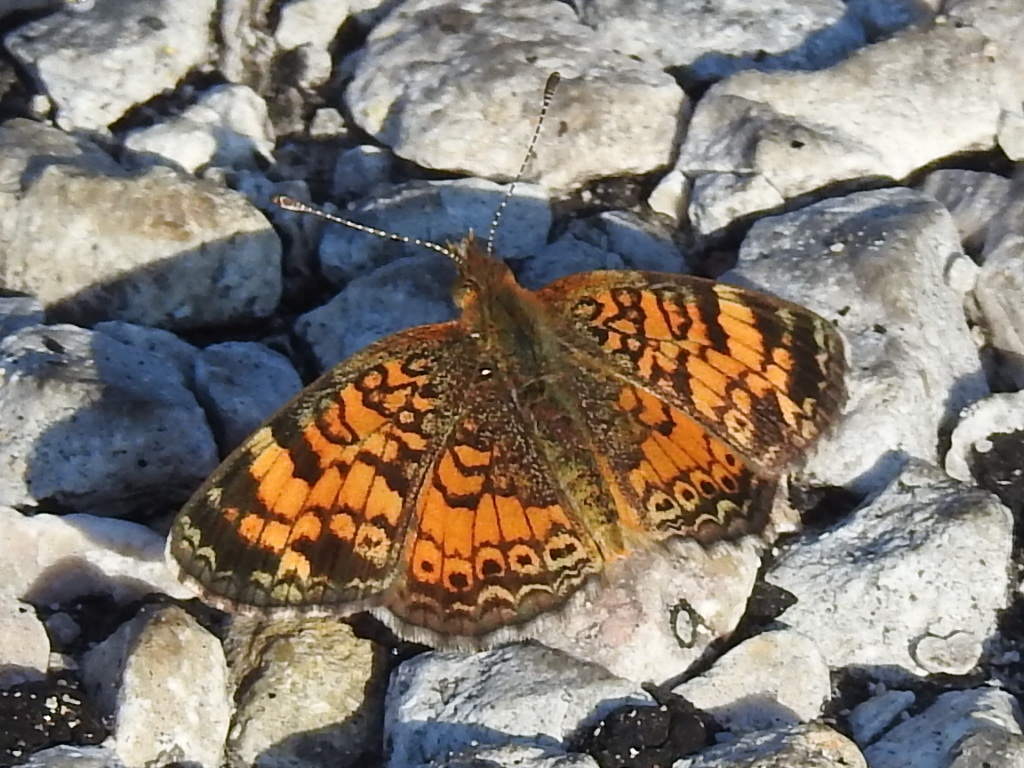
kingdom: Animalia
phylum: Arthropoda
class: Insecta
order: Lepidoptera
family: Nymphalidae
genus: Phyciodes
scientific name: Phyciodes tharos
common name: Pearl crescent
